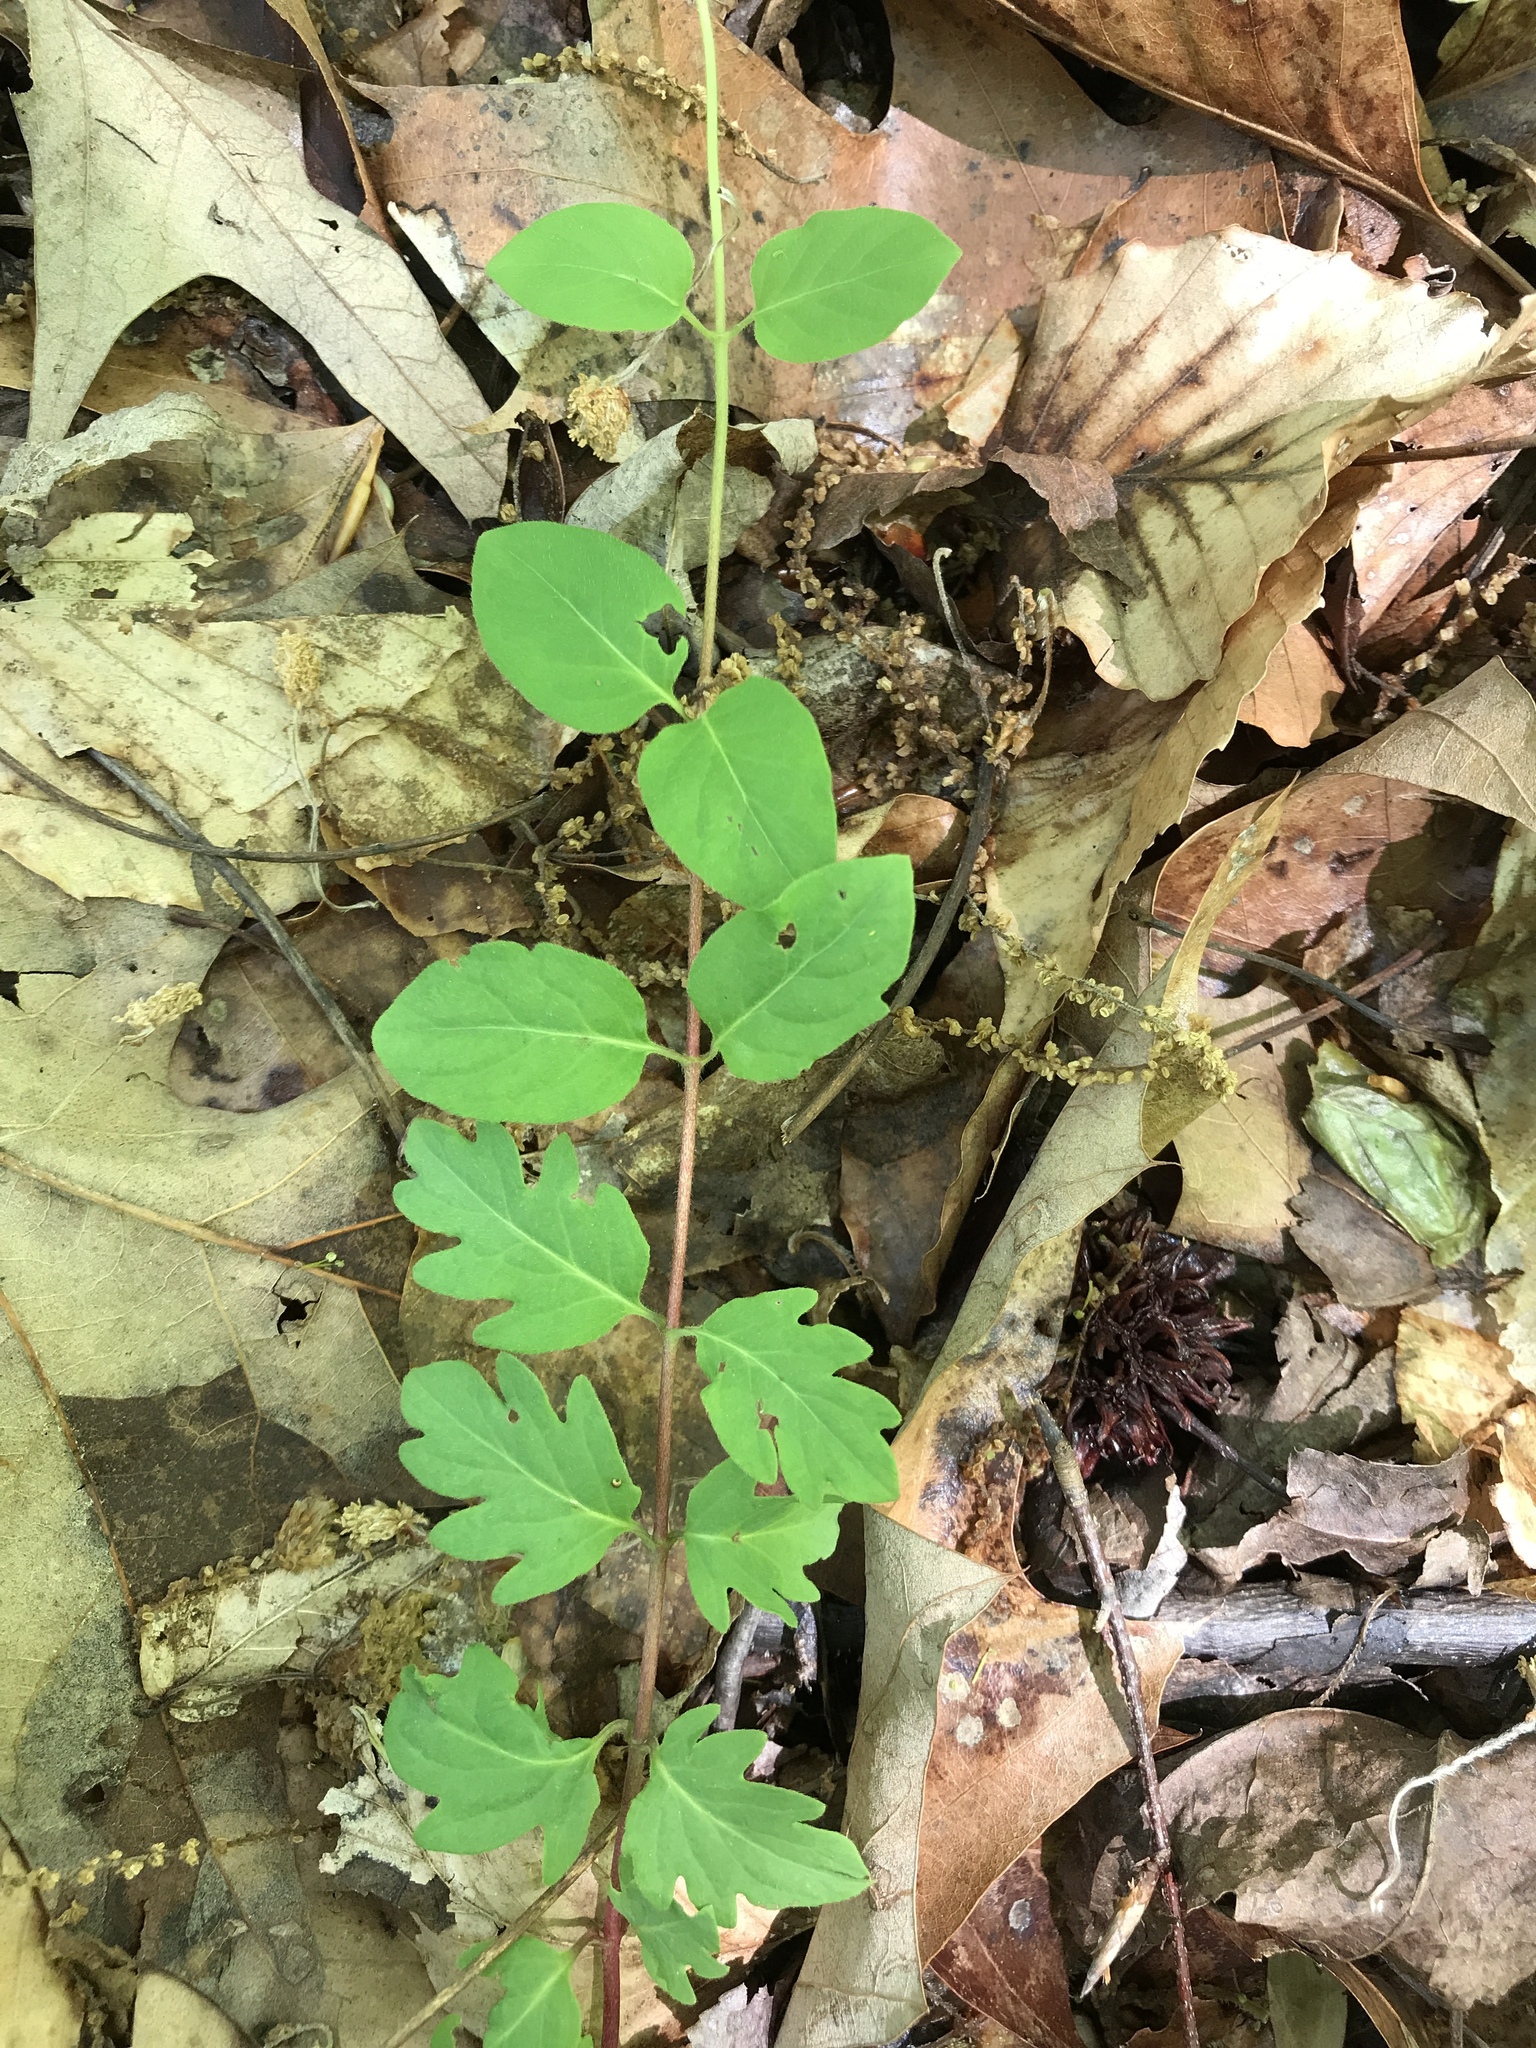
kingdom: Plantae
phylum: Tracheophyta
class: Magnoliopsida
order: Dipsacales
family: Caprifoliaceae
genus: Lonicera
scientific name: Lonicera japonica
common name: Japanese honeysuckle
